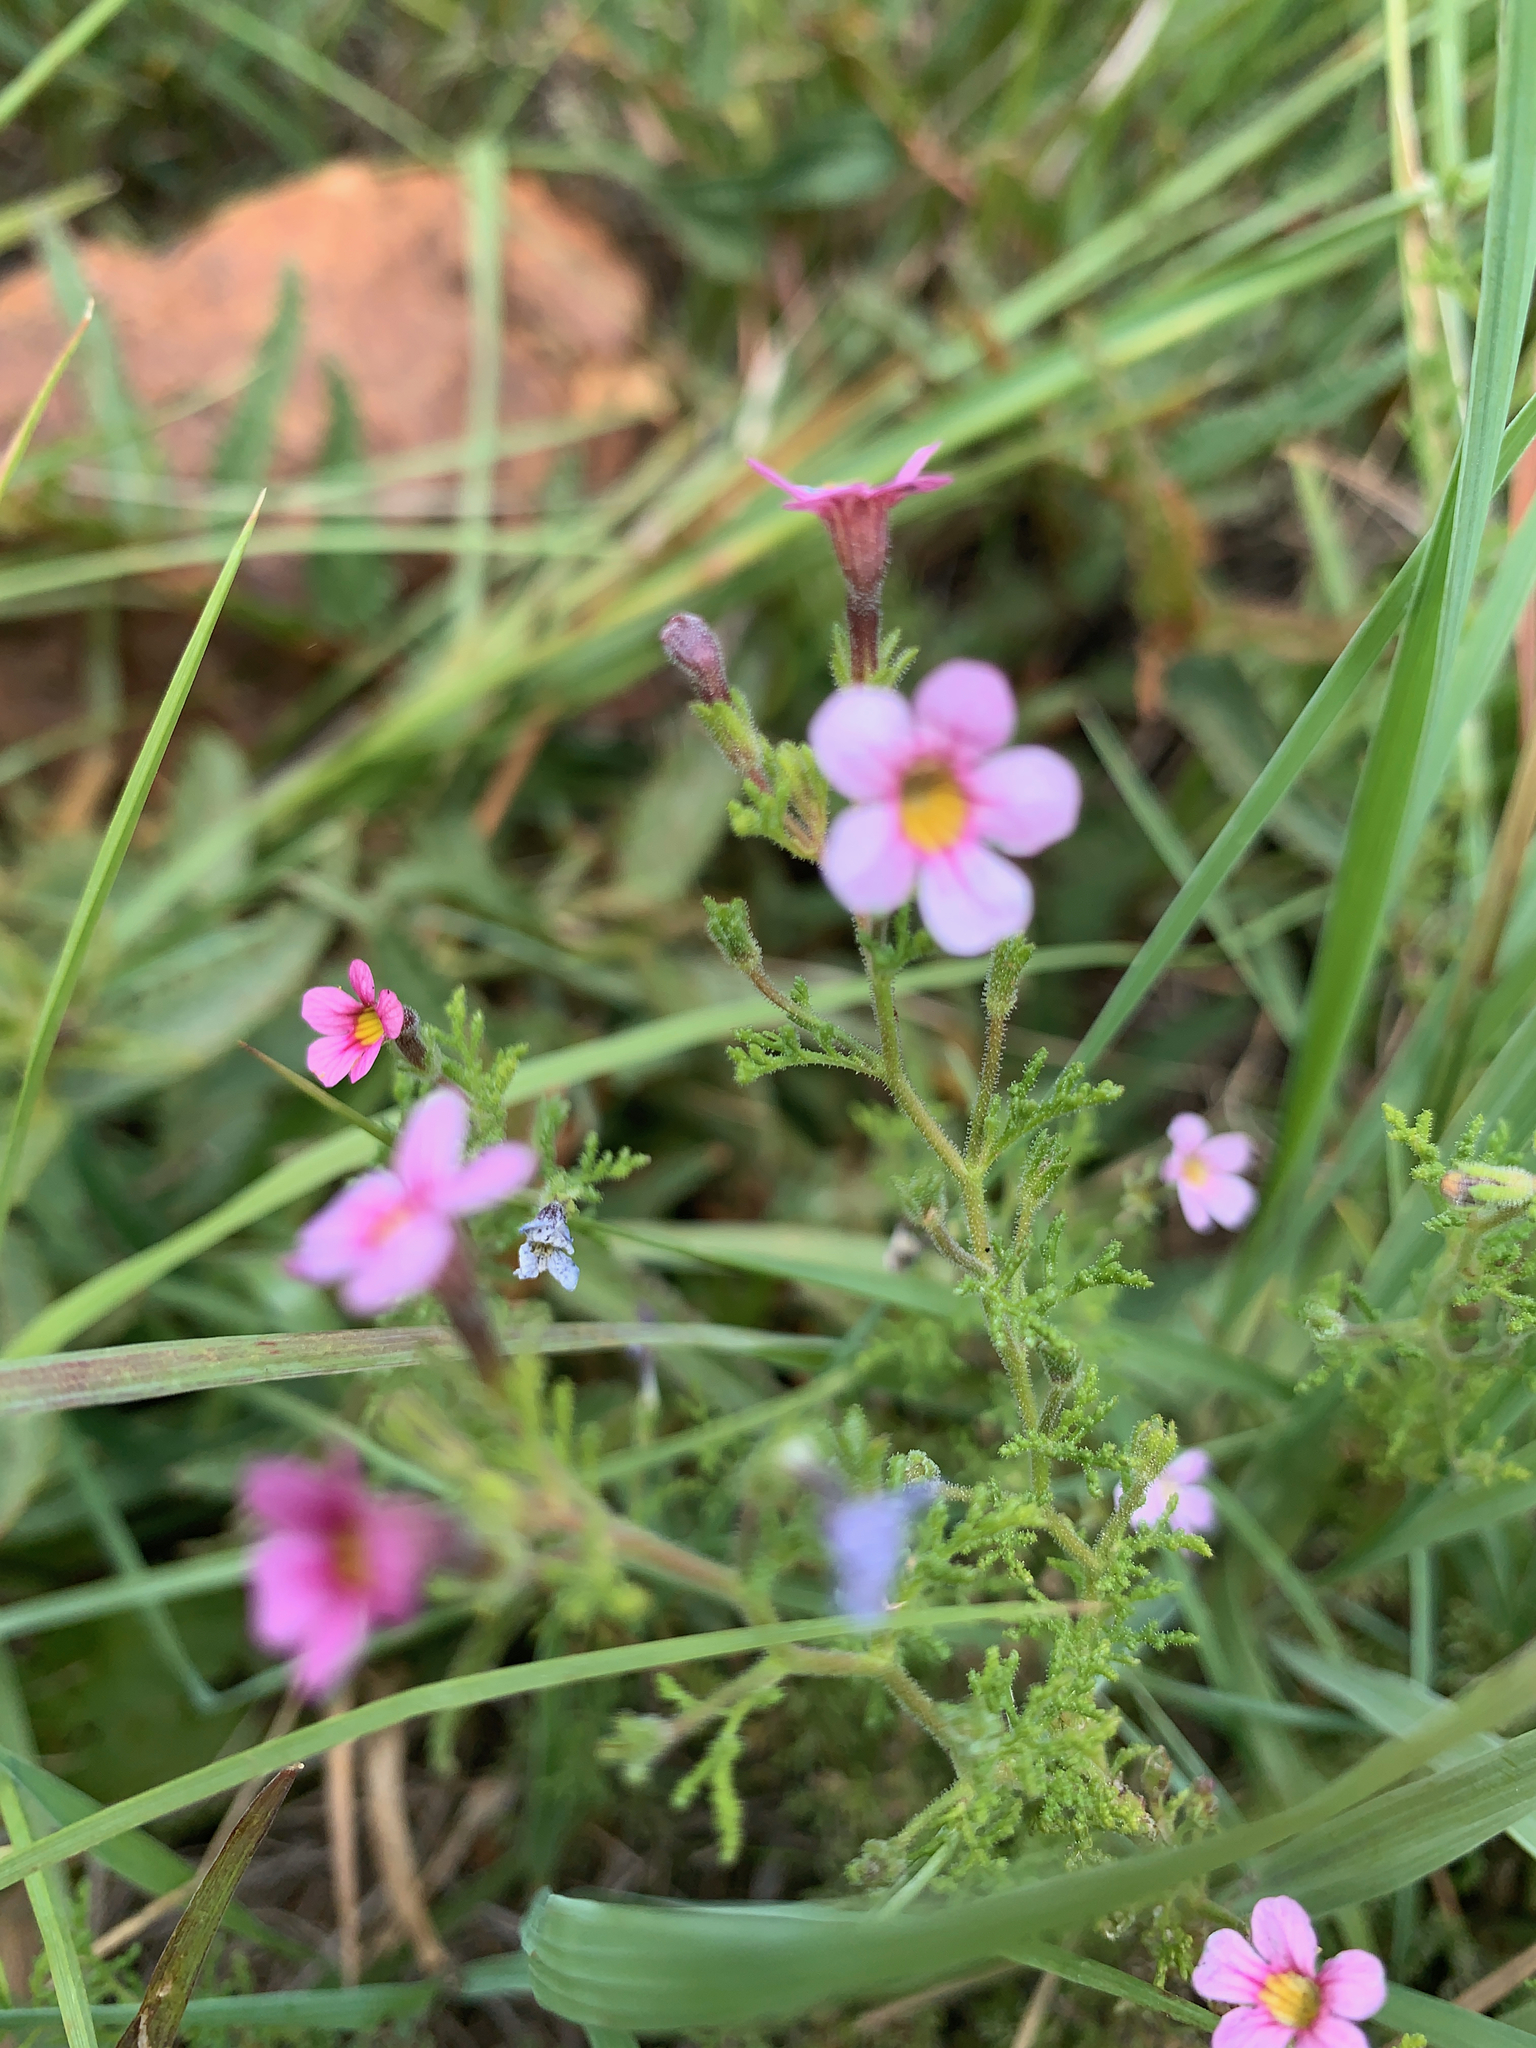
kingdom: Plantae
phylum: Tracheophyta
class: Magnoliopsida
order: Lamiales
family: Scrophulariaceae
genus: Jamesbrittenia
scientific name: Jamesbrittenia aurantiaca
